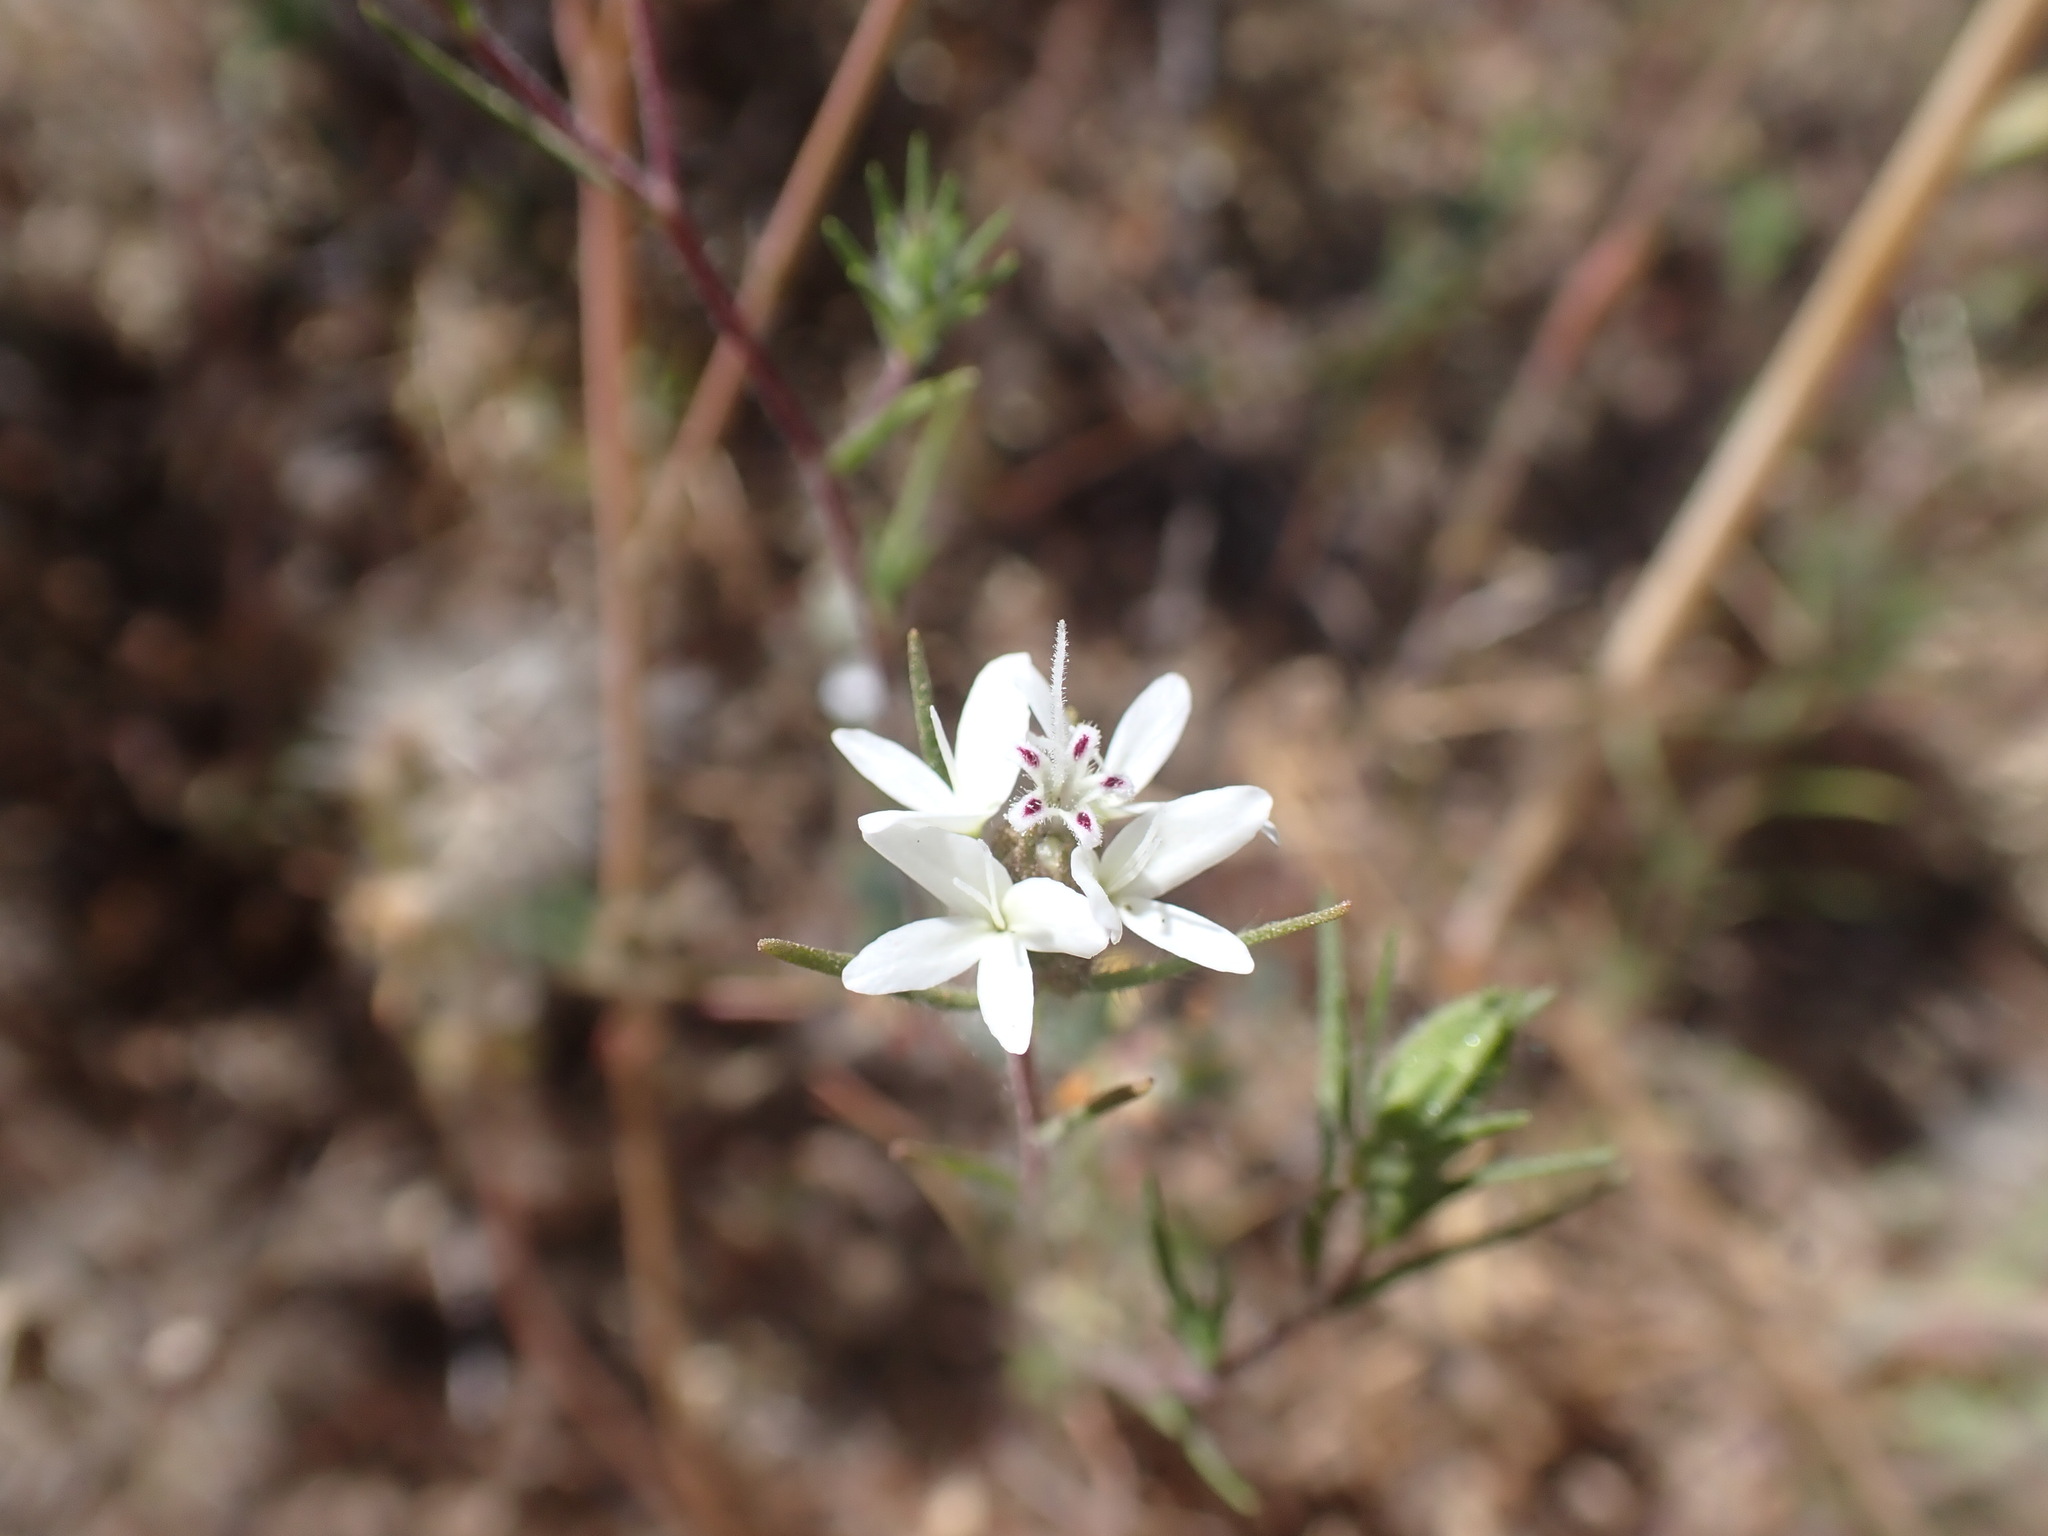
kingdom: Plantae
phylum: Tracheophyta
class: Magnoliopsida
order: Asterales
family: Asteraceae
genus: Osmadenia
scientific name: Osmadenia tenella
